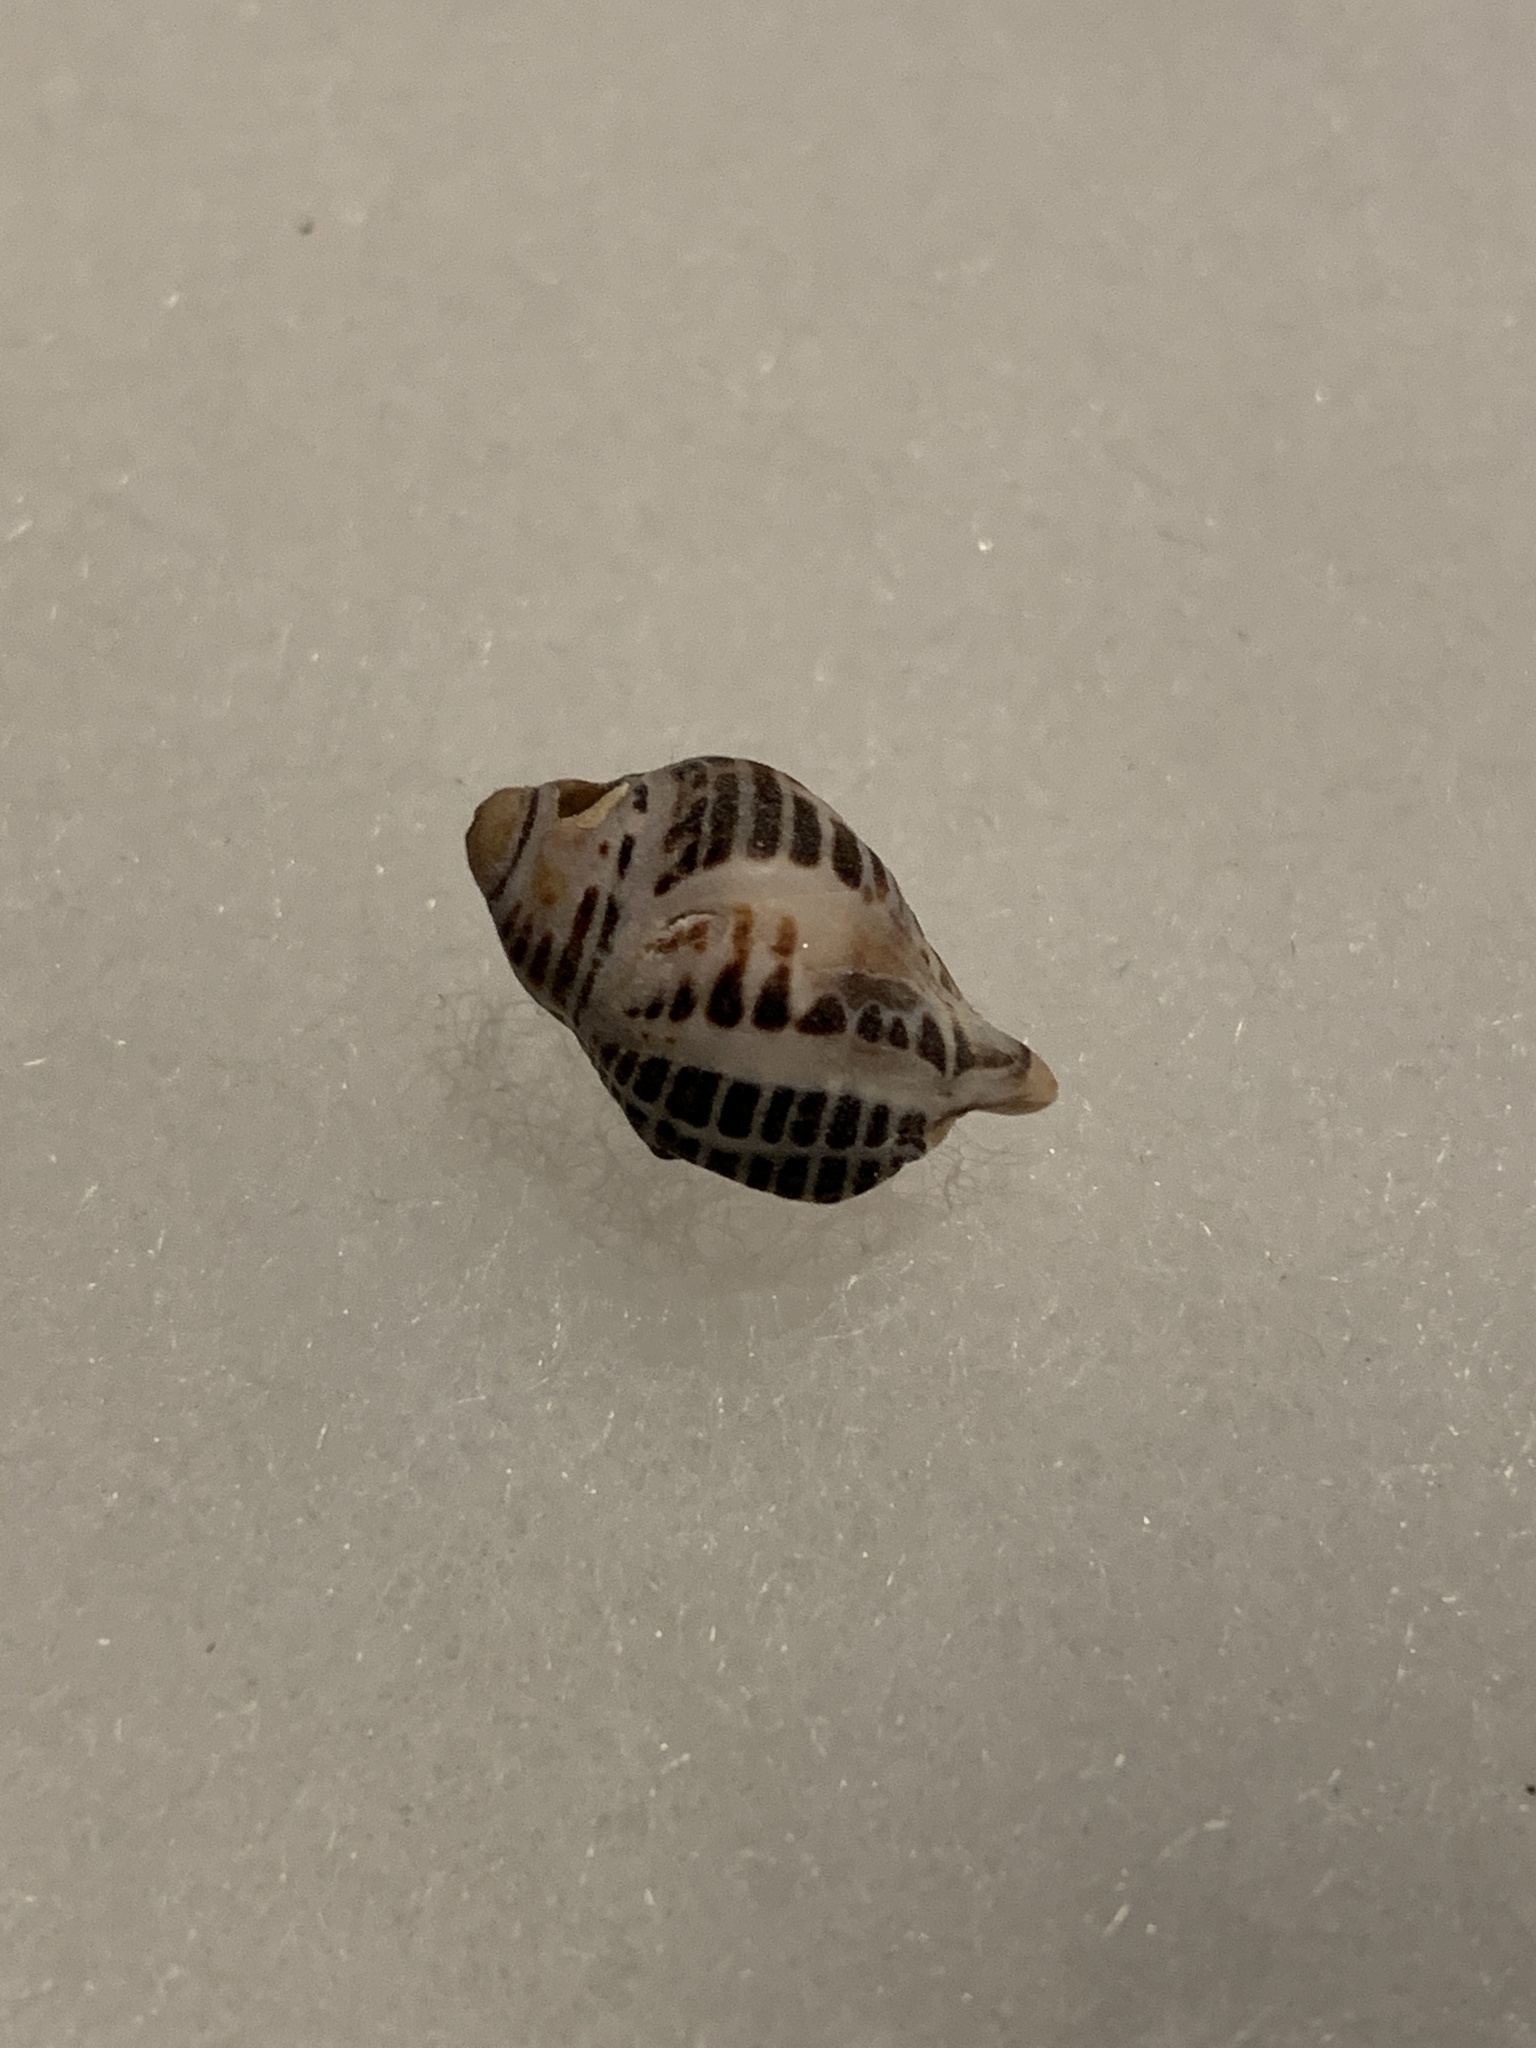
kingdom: Animalia
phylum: Mollusca
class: Gastropoda
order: Neogastropoda
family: Muricidae
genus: Acanthinucella
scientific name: Acanthinucella spirata
